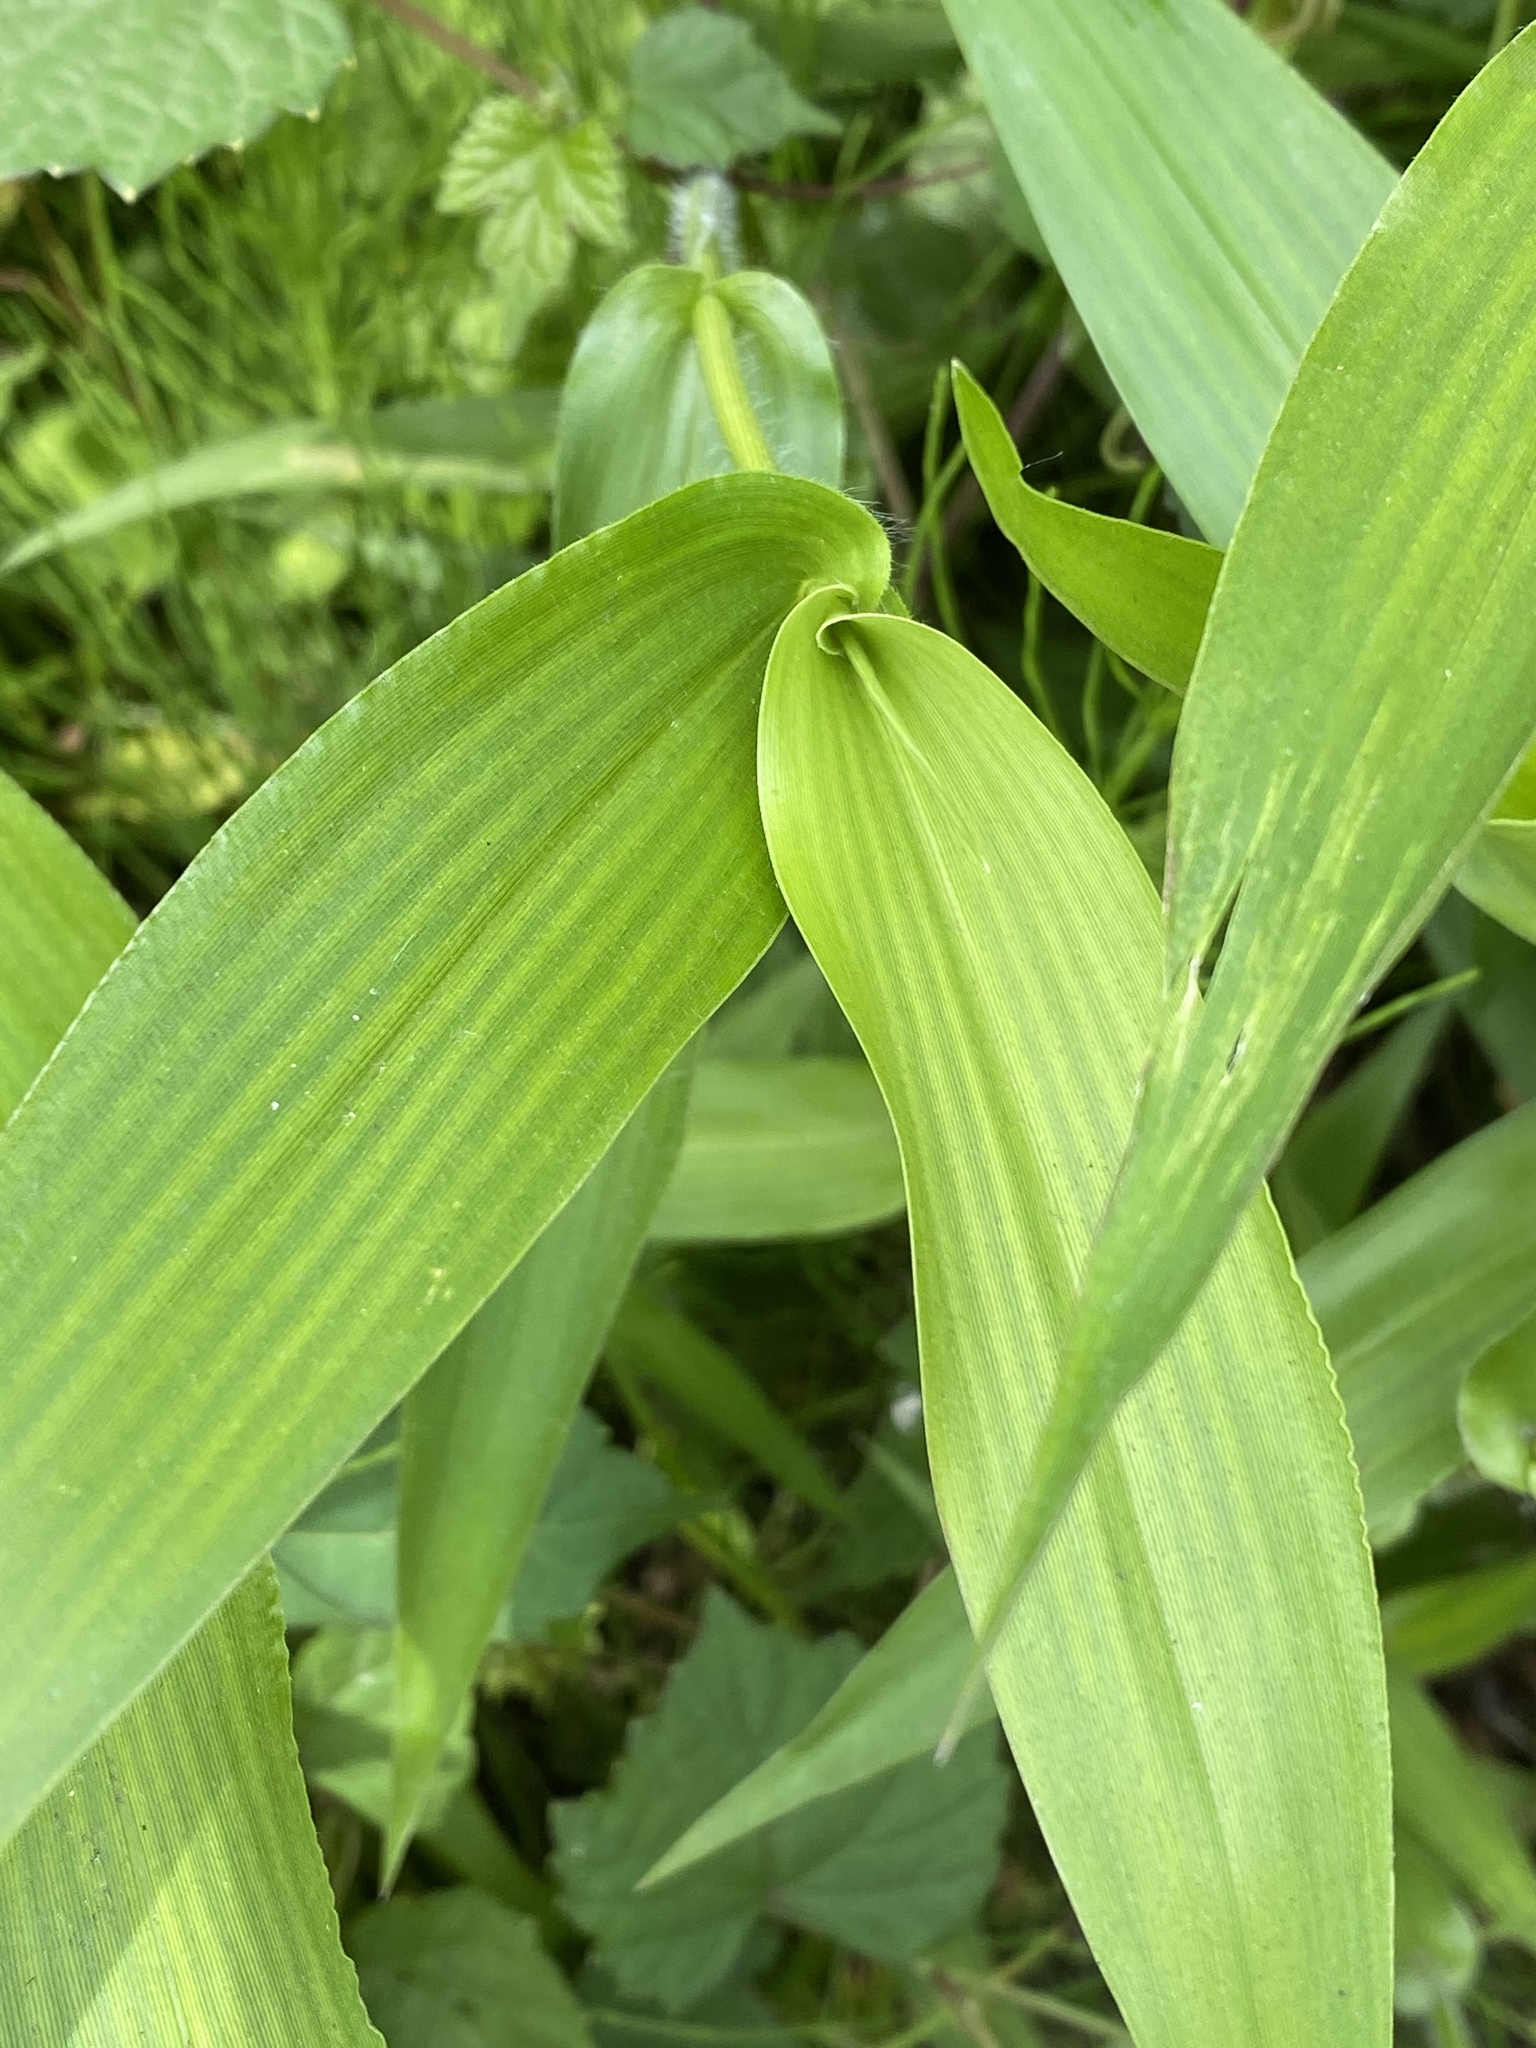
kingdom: Plantae
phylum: Tracheophyta
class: Liliopsida
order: Poales
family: Poaceae
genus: Dichanthelium
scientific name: Dichanthelium clandestinum
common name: Deer-tongue grass
